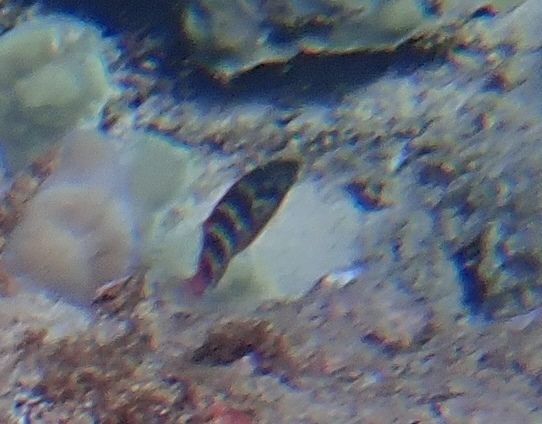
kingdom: Animalia
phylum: Chordata
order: Perciformes
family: Cirrhitidae
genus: Cirrhitops
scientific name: Cirrhitops fasciatus
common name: Redbarred hawkfish
